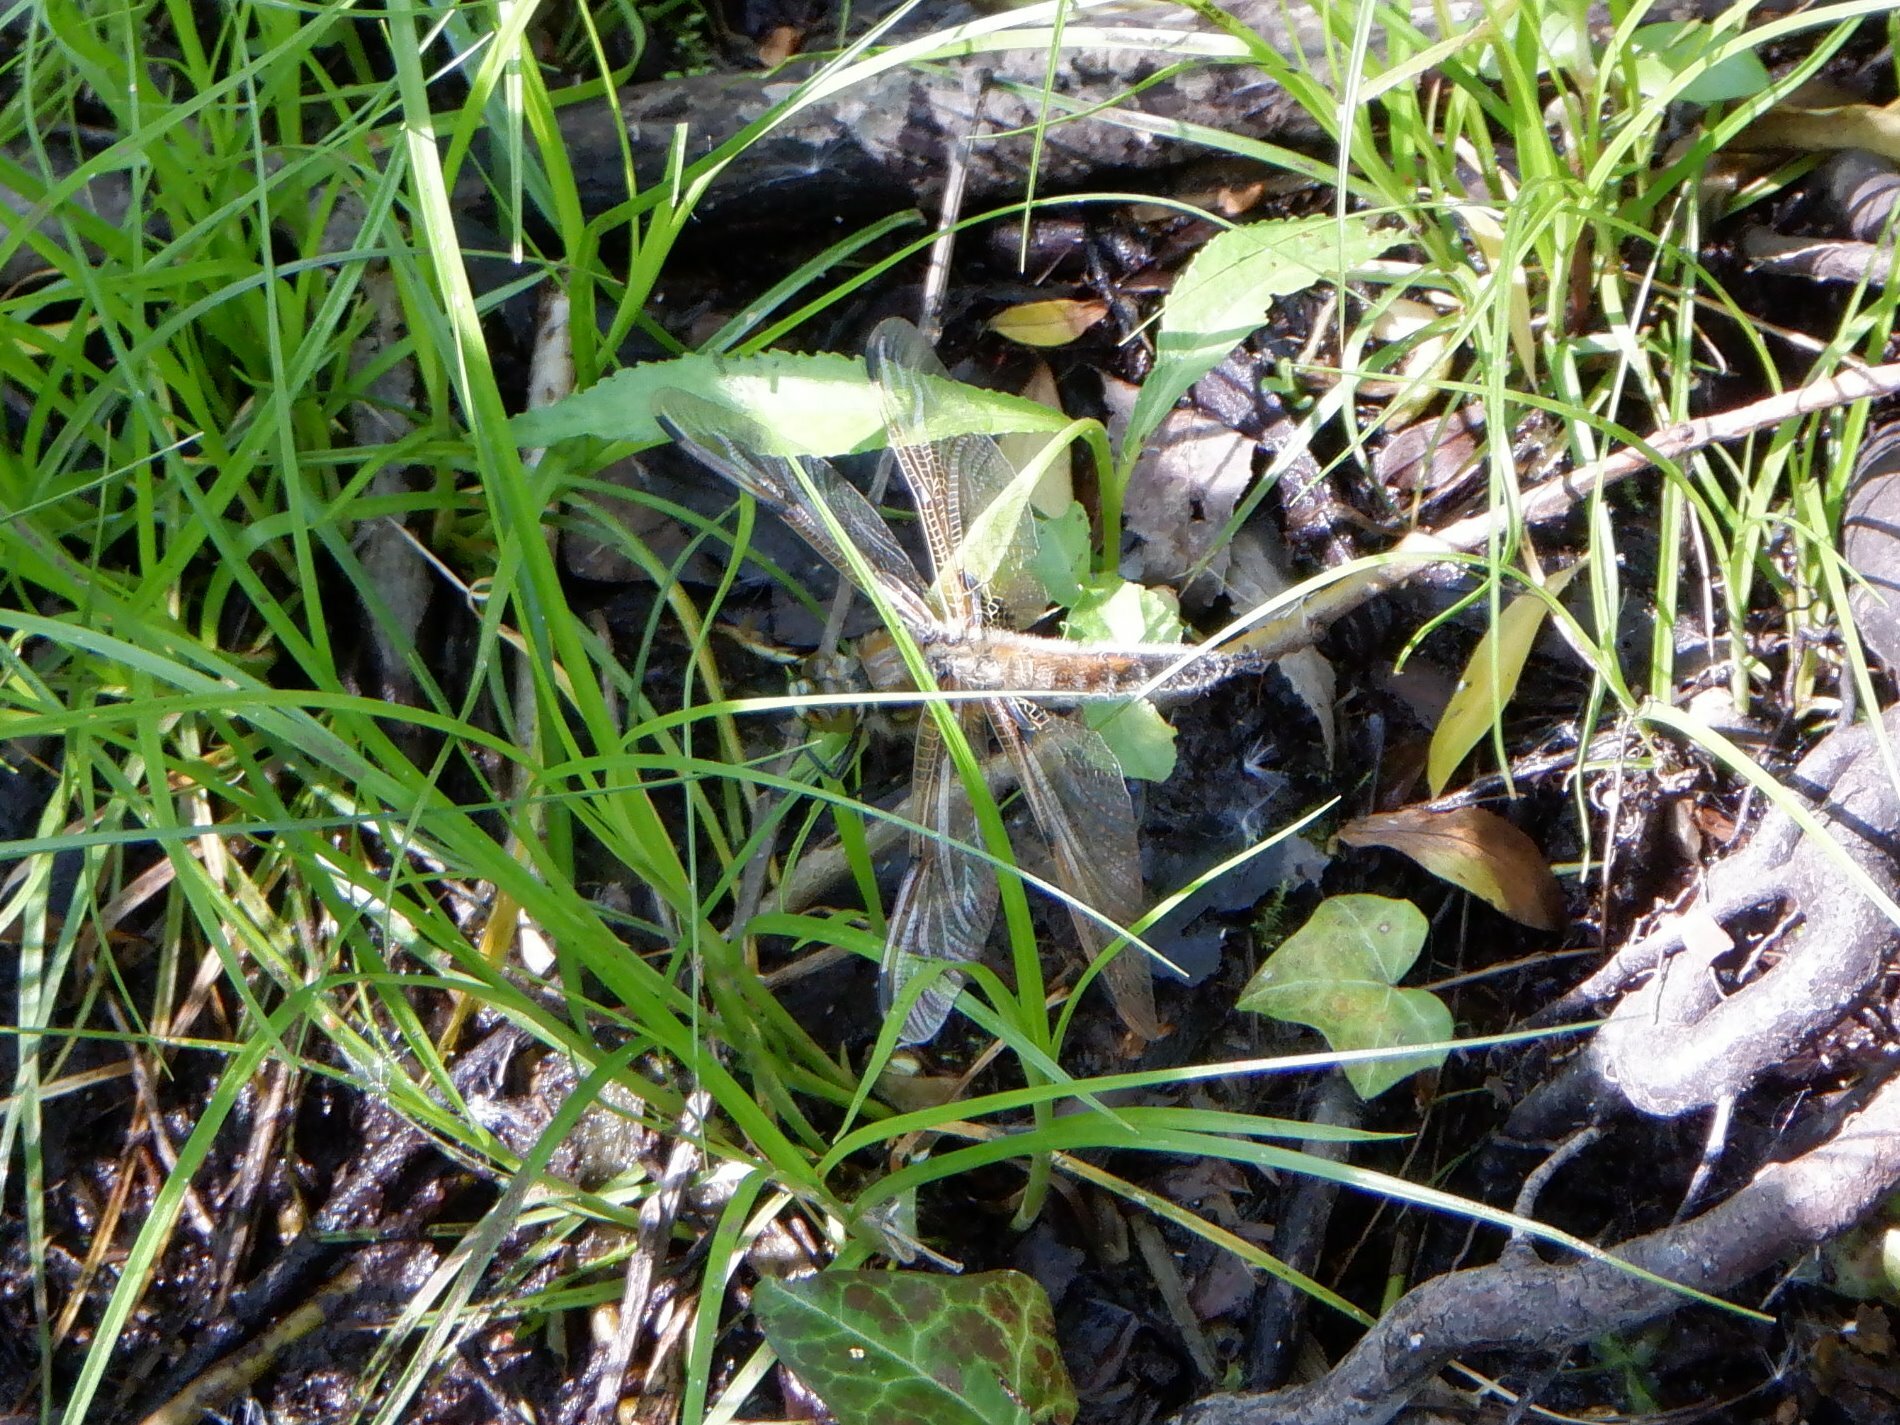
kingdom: Animalia
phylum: Arthropoda
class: Insecta
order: Odonata
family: Libellulidae
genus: Libellula
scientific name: Libellula quadrimaculata
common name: Four-spotted chaser
